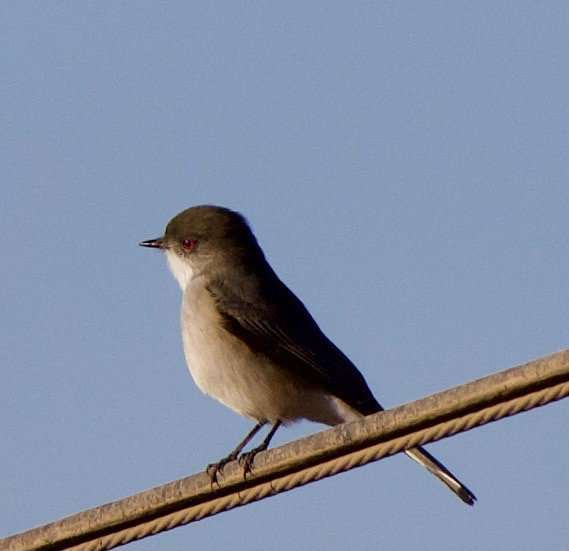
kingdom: Animalia
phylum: Chordata
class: Aves
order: Passeriformes
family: Tyrannidae
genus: Xolmis
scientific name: Xolmis pyrope
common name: Fire-eyed diucon
